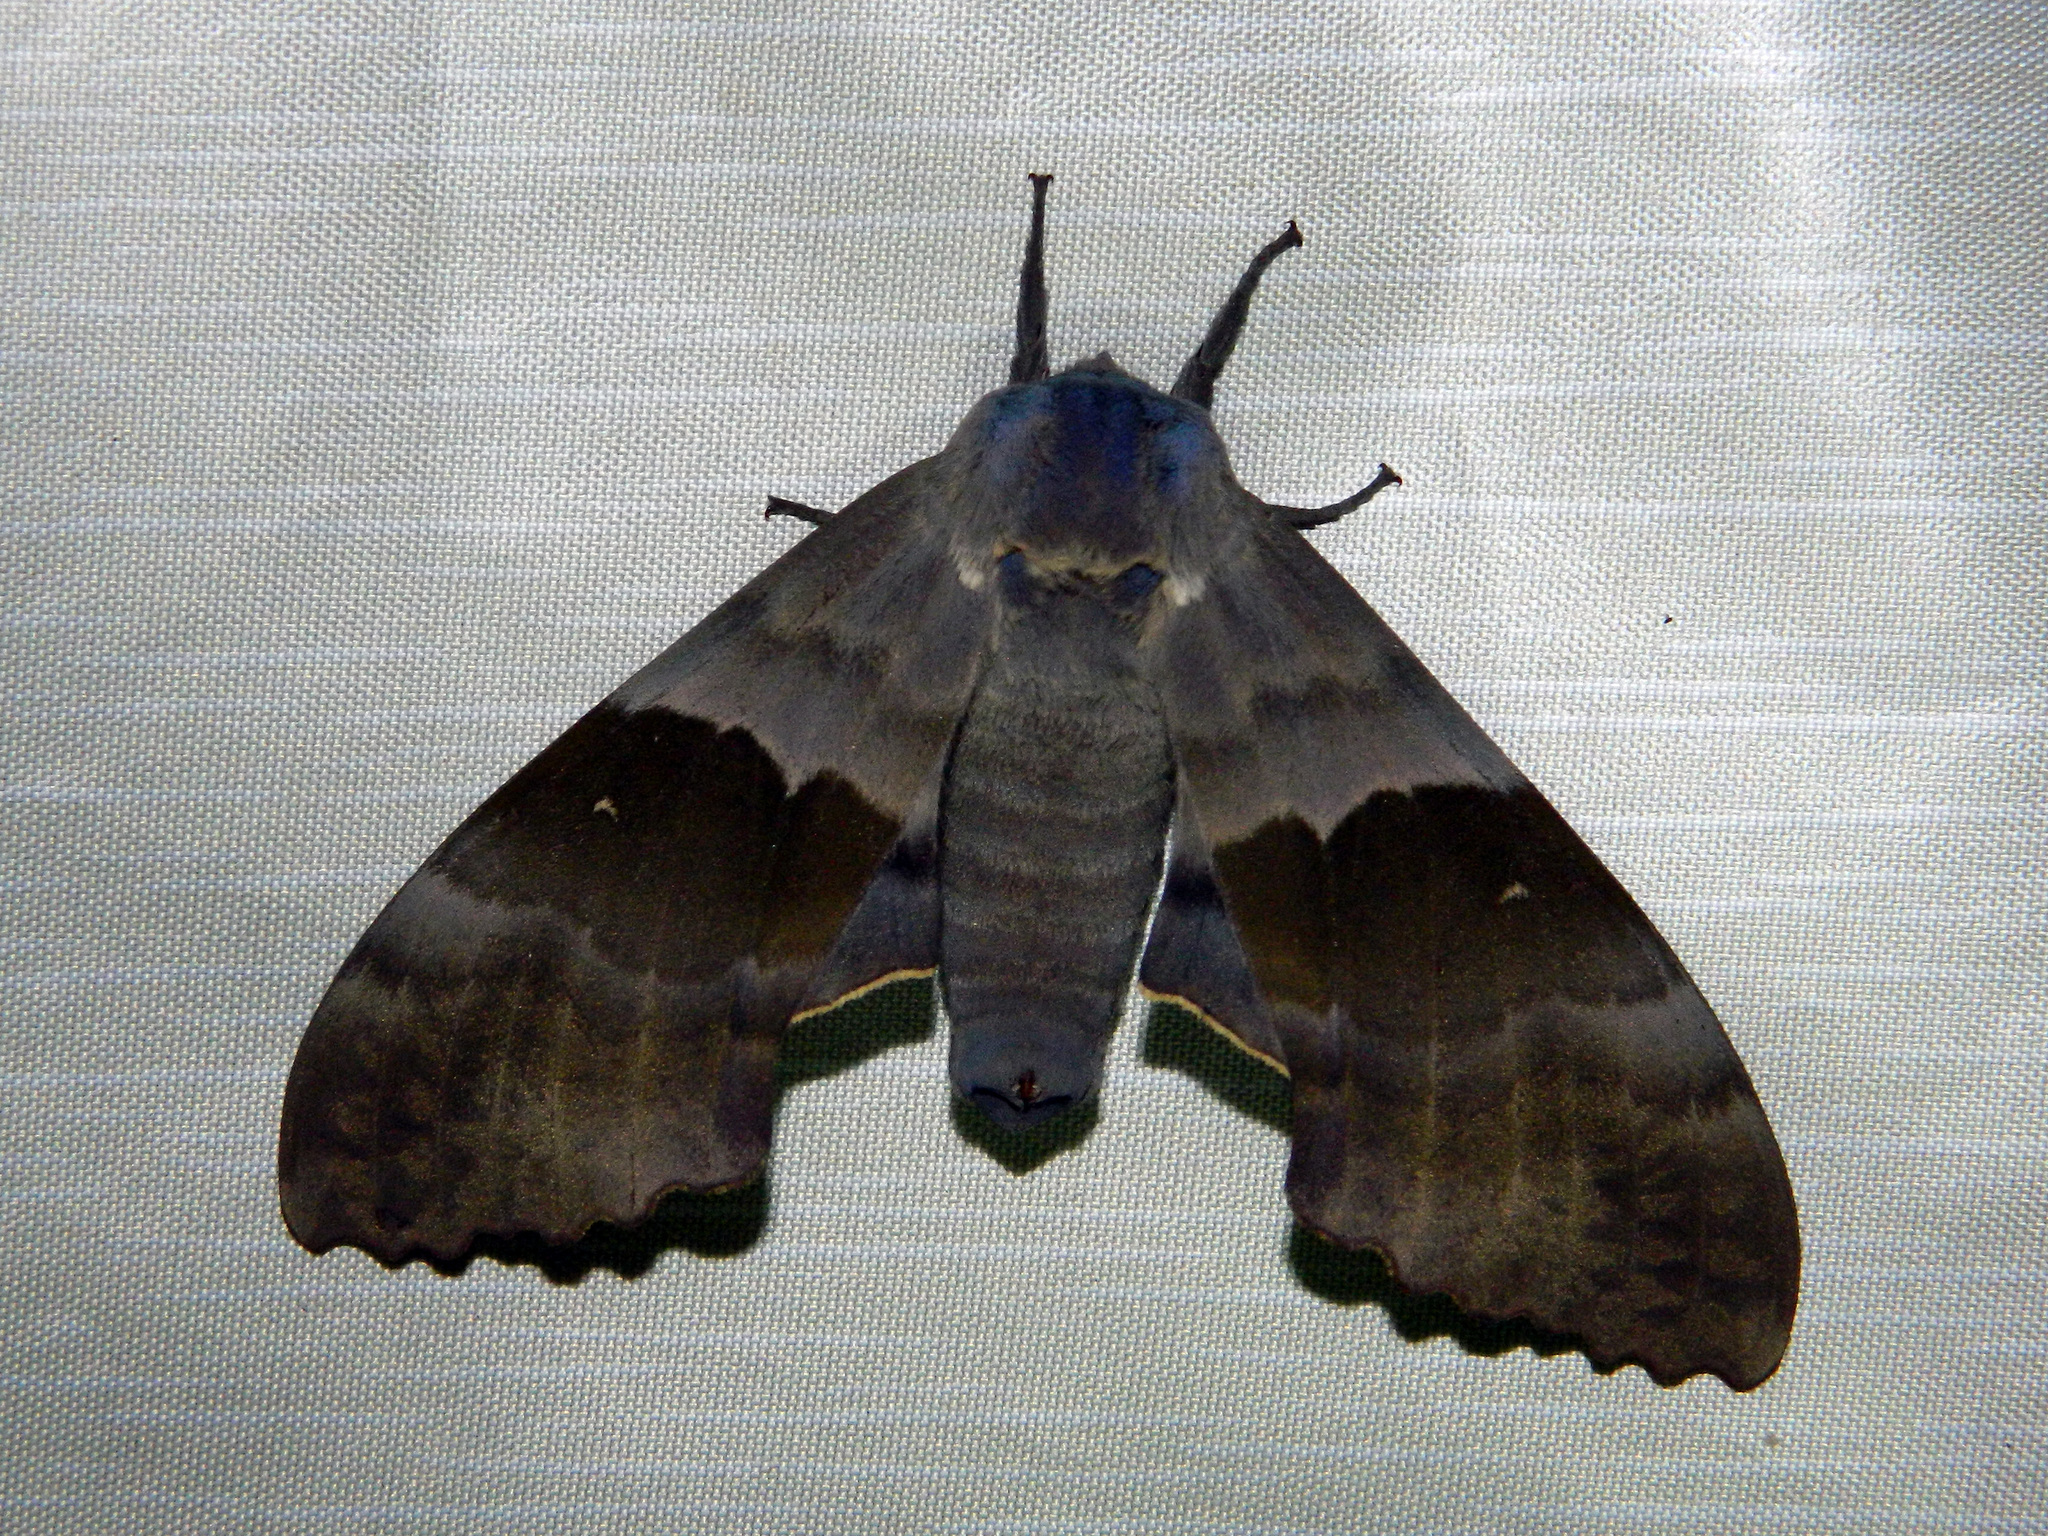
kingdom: Animalia
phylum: Arthropoda
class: Insecta
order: Lepidoptera
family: Sphingidae
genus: Pachysphinx
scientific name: Pachysphinx modesta
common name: Big poplar sphinx
